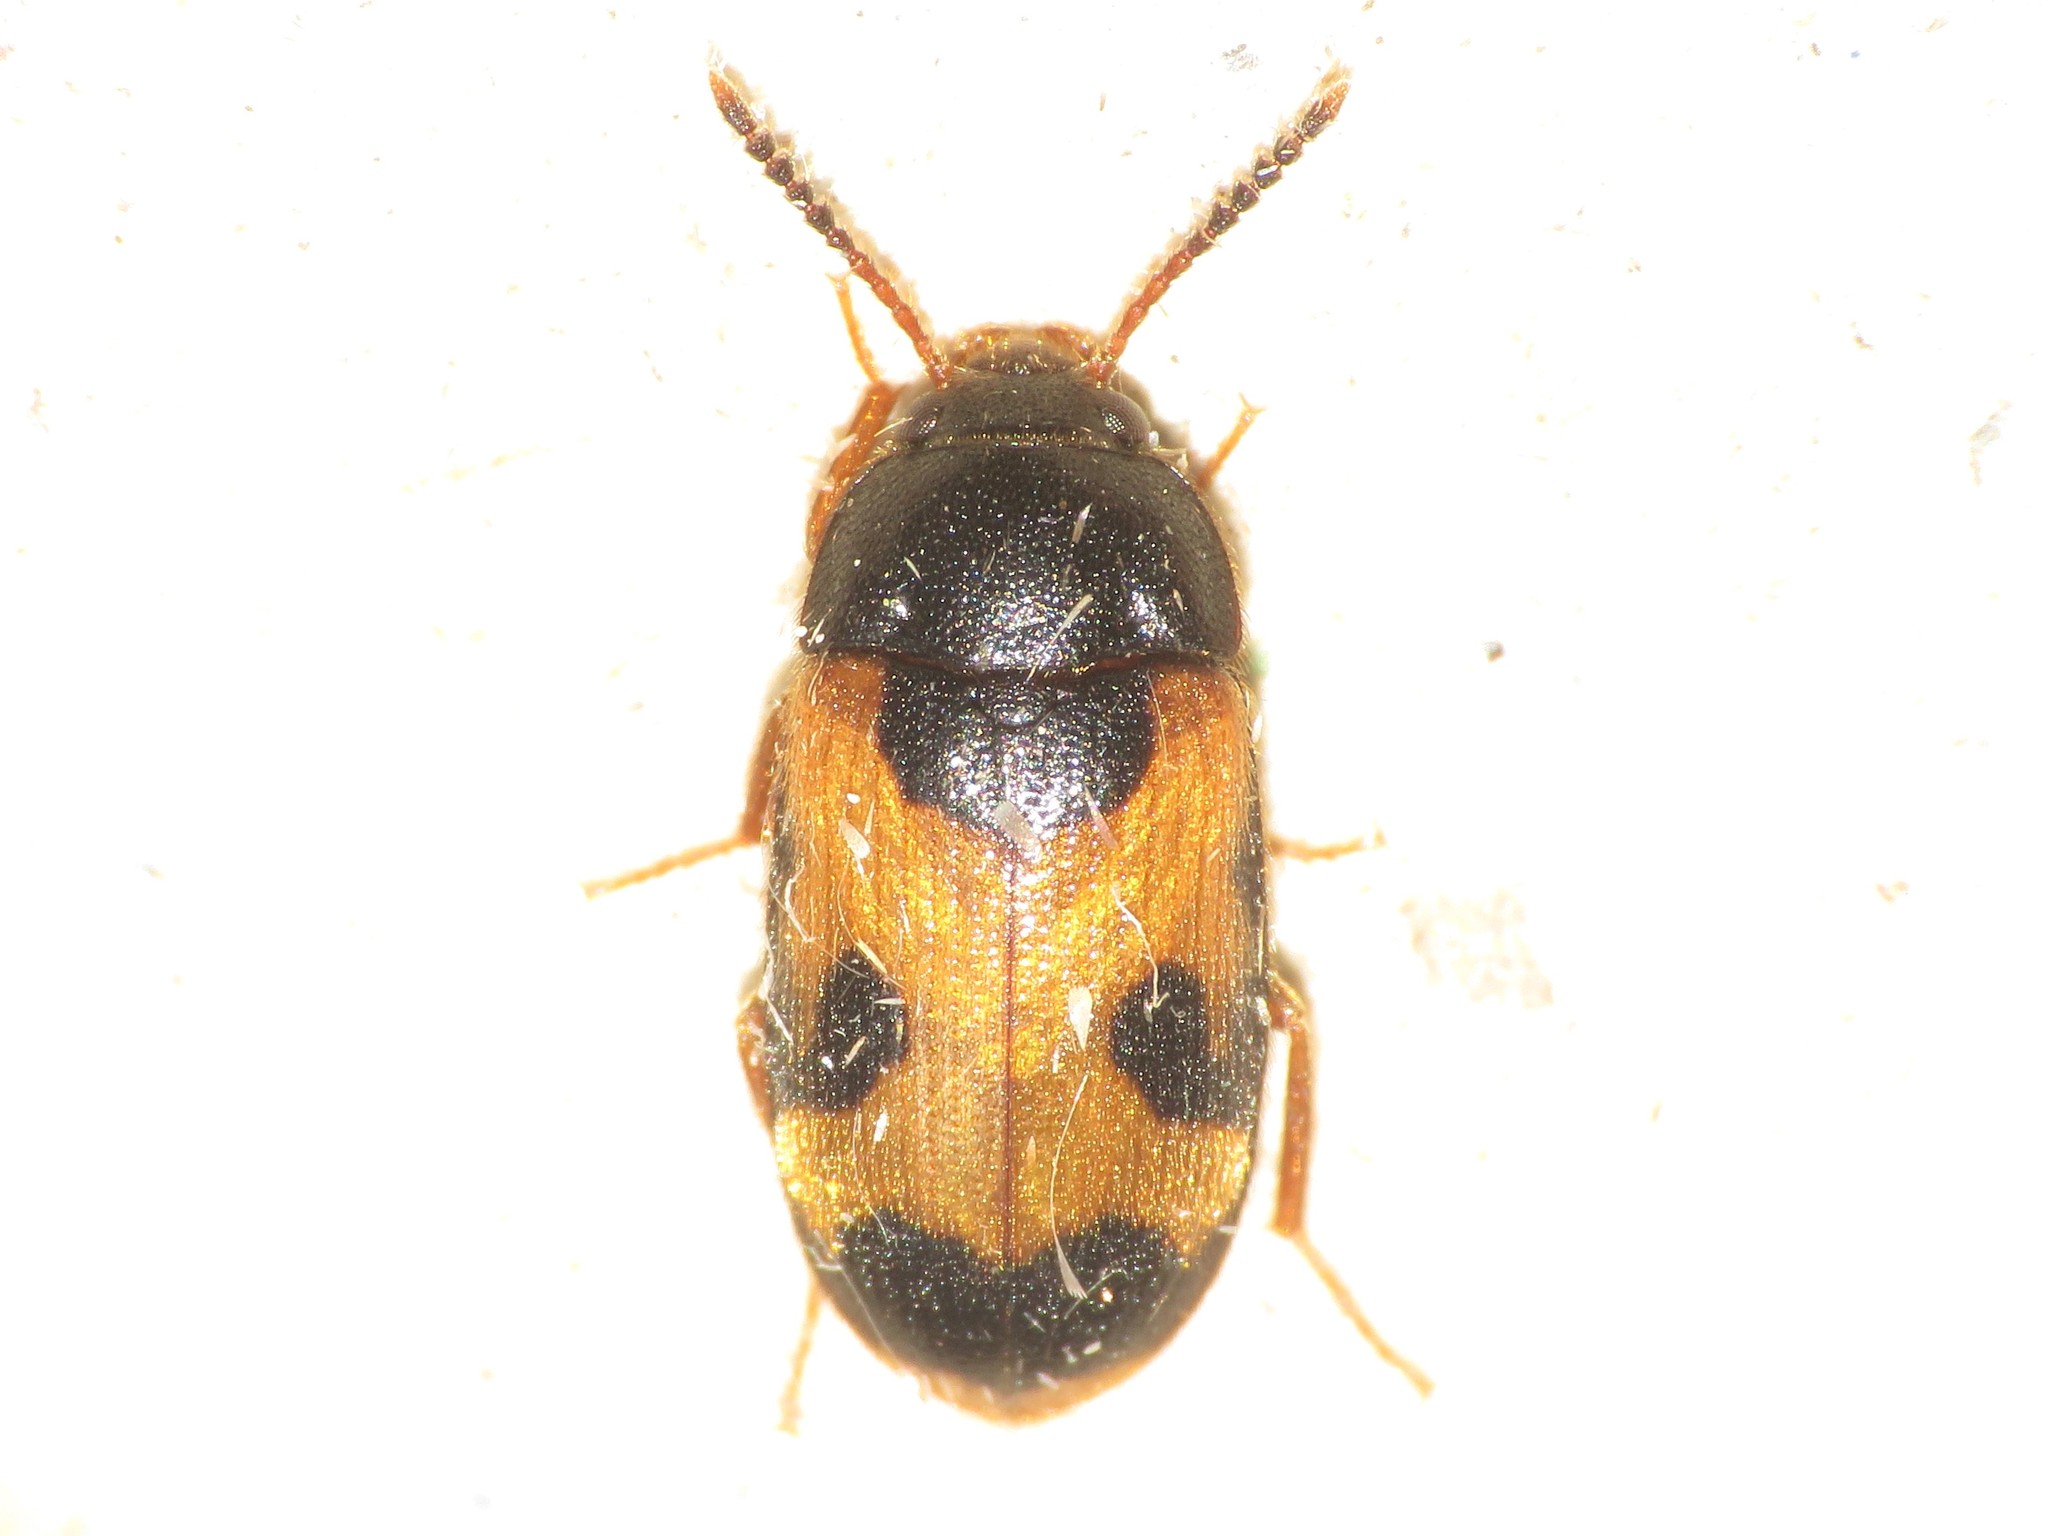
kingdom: Animalia
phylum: Arthropoda
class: Insecta
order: Coleoptera
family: Mycetophagidae
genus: Mycetophagus
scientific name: Mycetophagus punctatus
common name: Hairy fungus beetle
